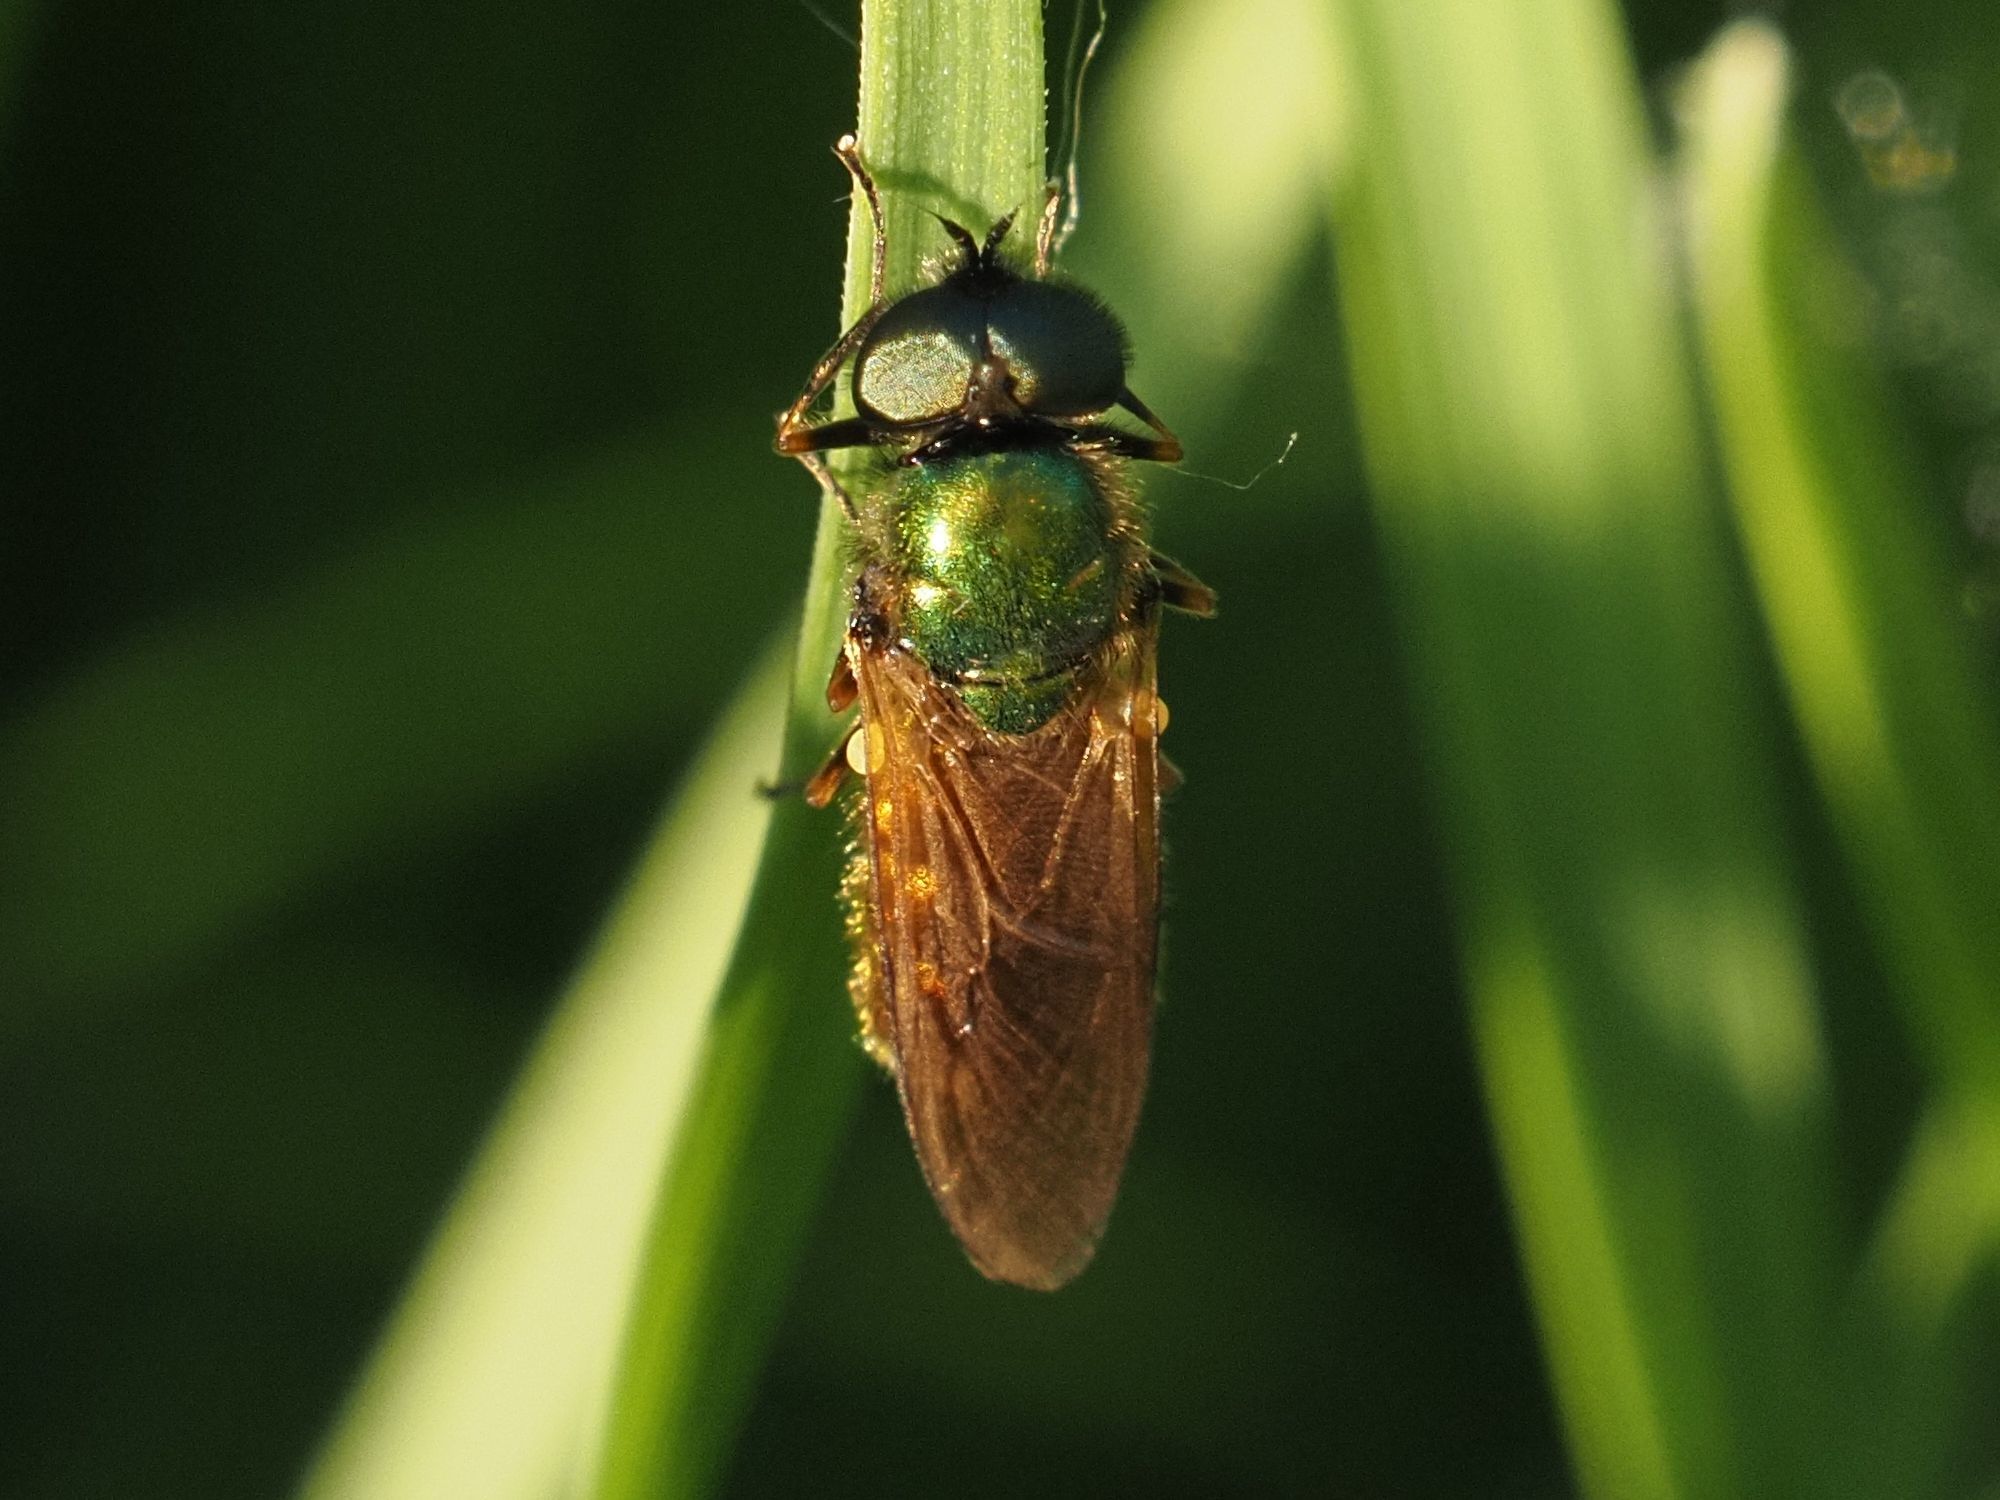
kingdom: Animalia
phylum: Arthropoda
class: Insecta
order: Diptera
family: Stratiomyidae
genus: Chloromyia
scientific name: Chloromyia formosa
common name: Soldier fly
